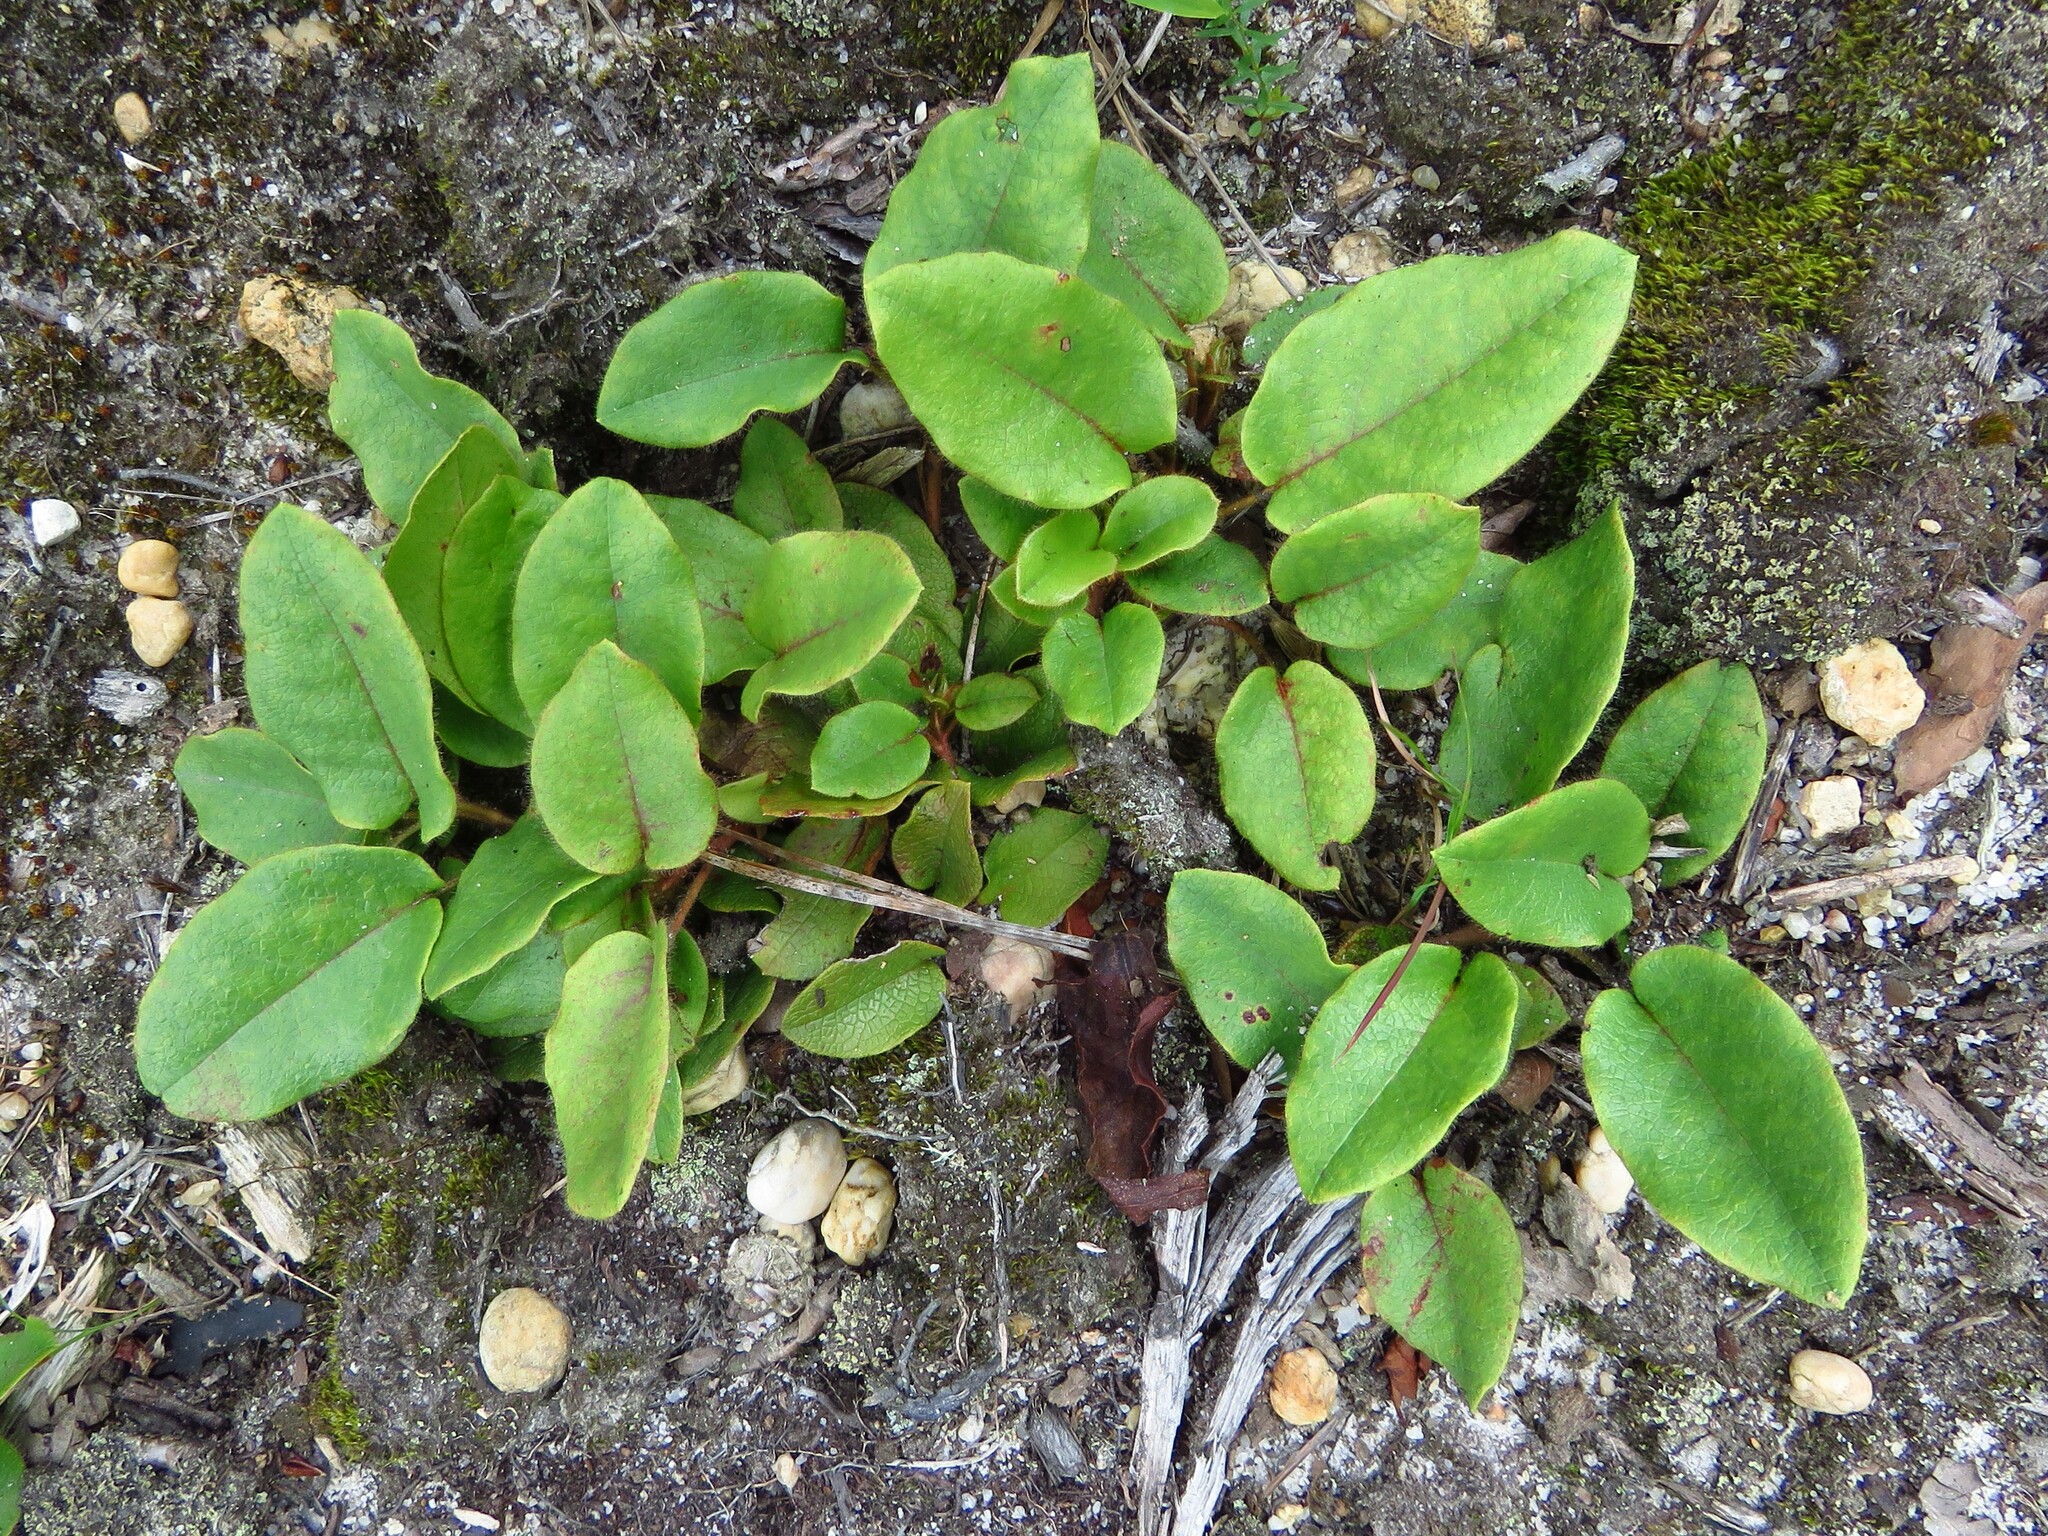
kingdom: Plantae
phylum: Tracheophyta
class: Magnoliopsida
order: Ericales
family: Ericaceae
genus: Epigaea
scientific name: Epigaea repens
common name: Gravelroot
